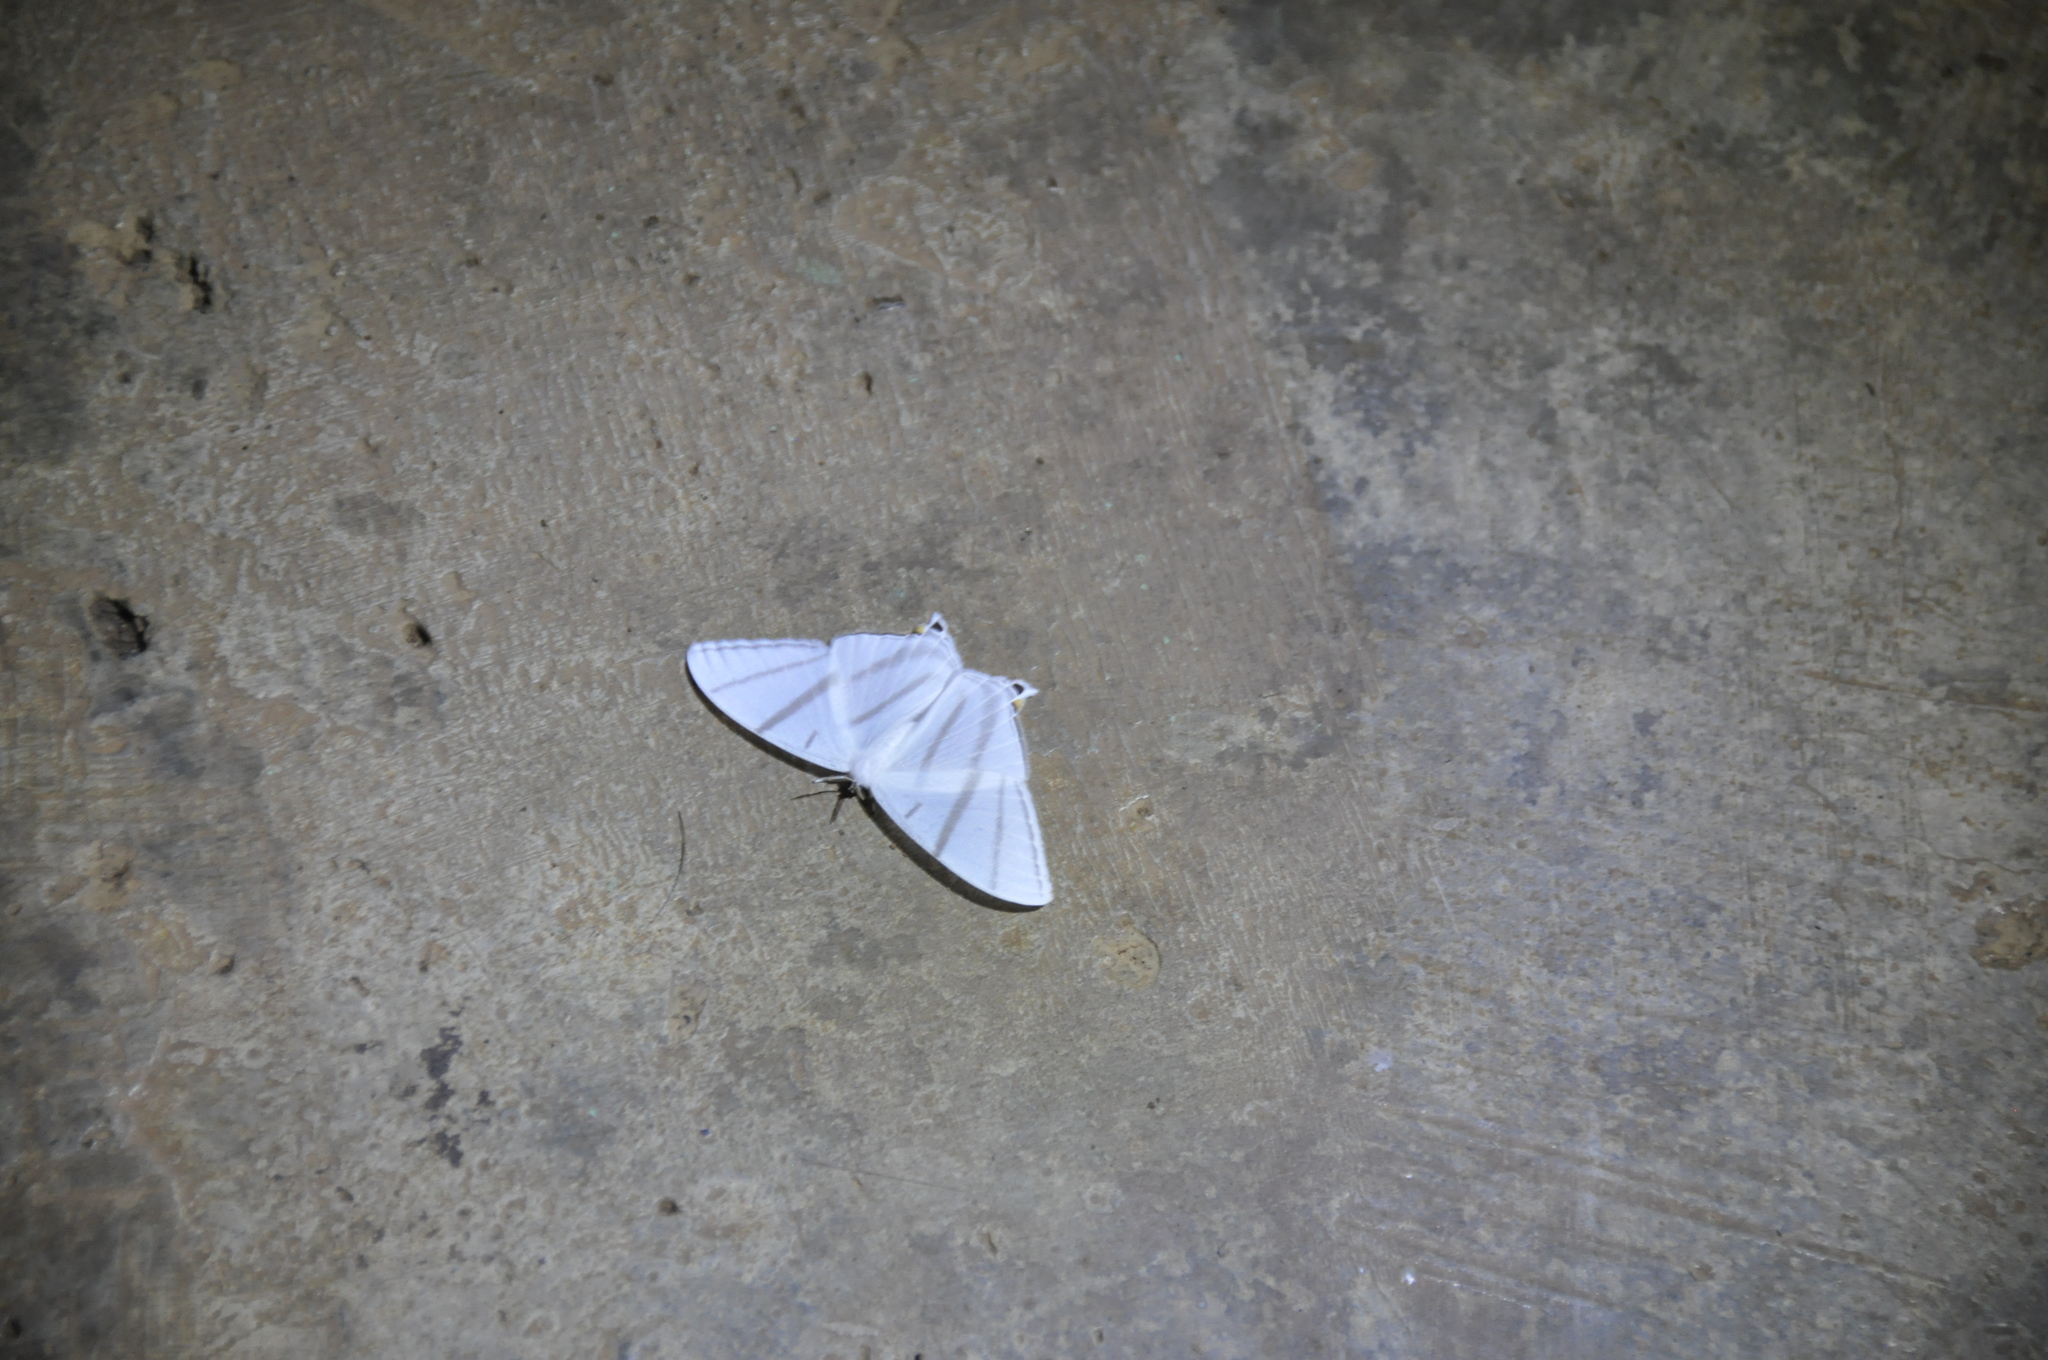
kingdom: Animalia
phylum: Arthropoda
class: Insecta
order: Lepidoptera
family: Saturniidae
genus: Therinia
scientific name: Therinia transversaria
